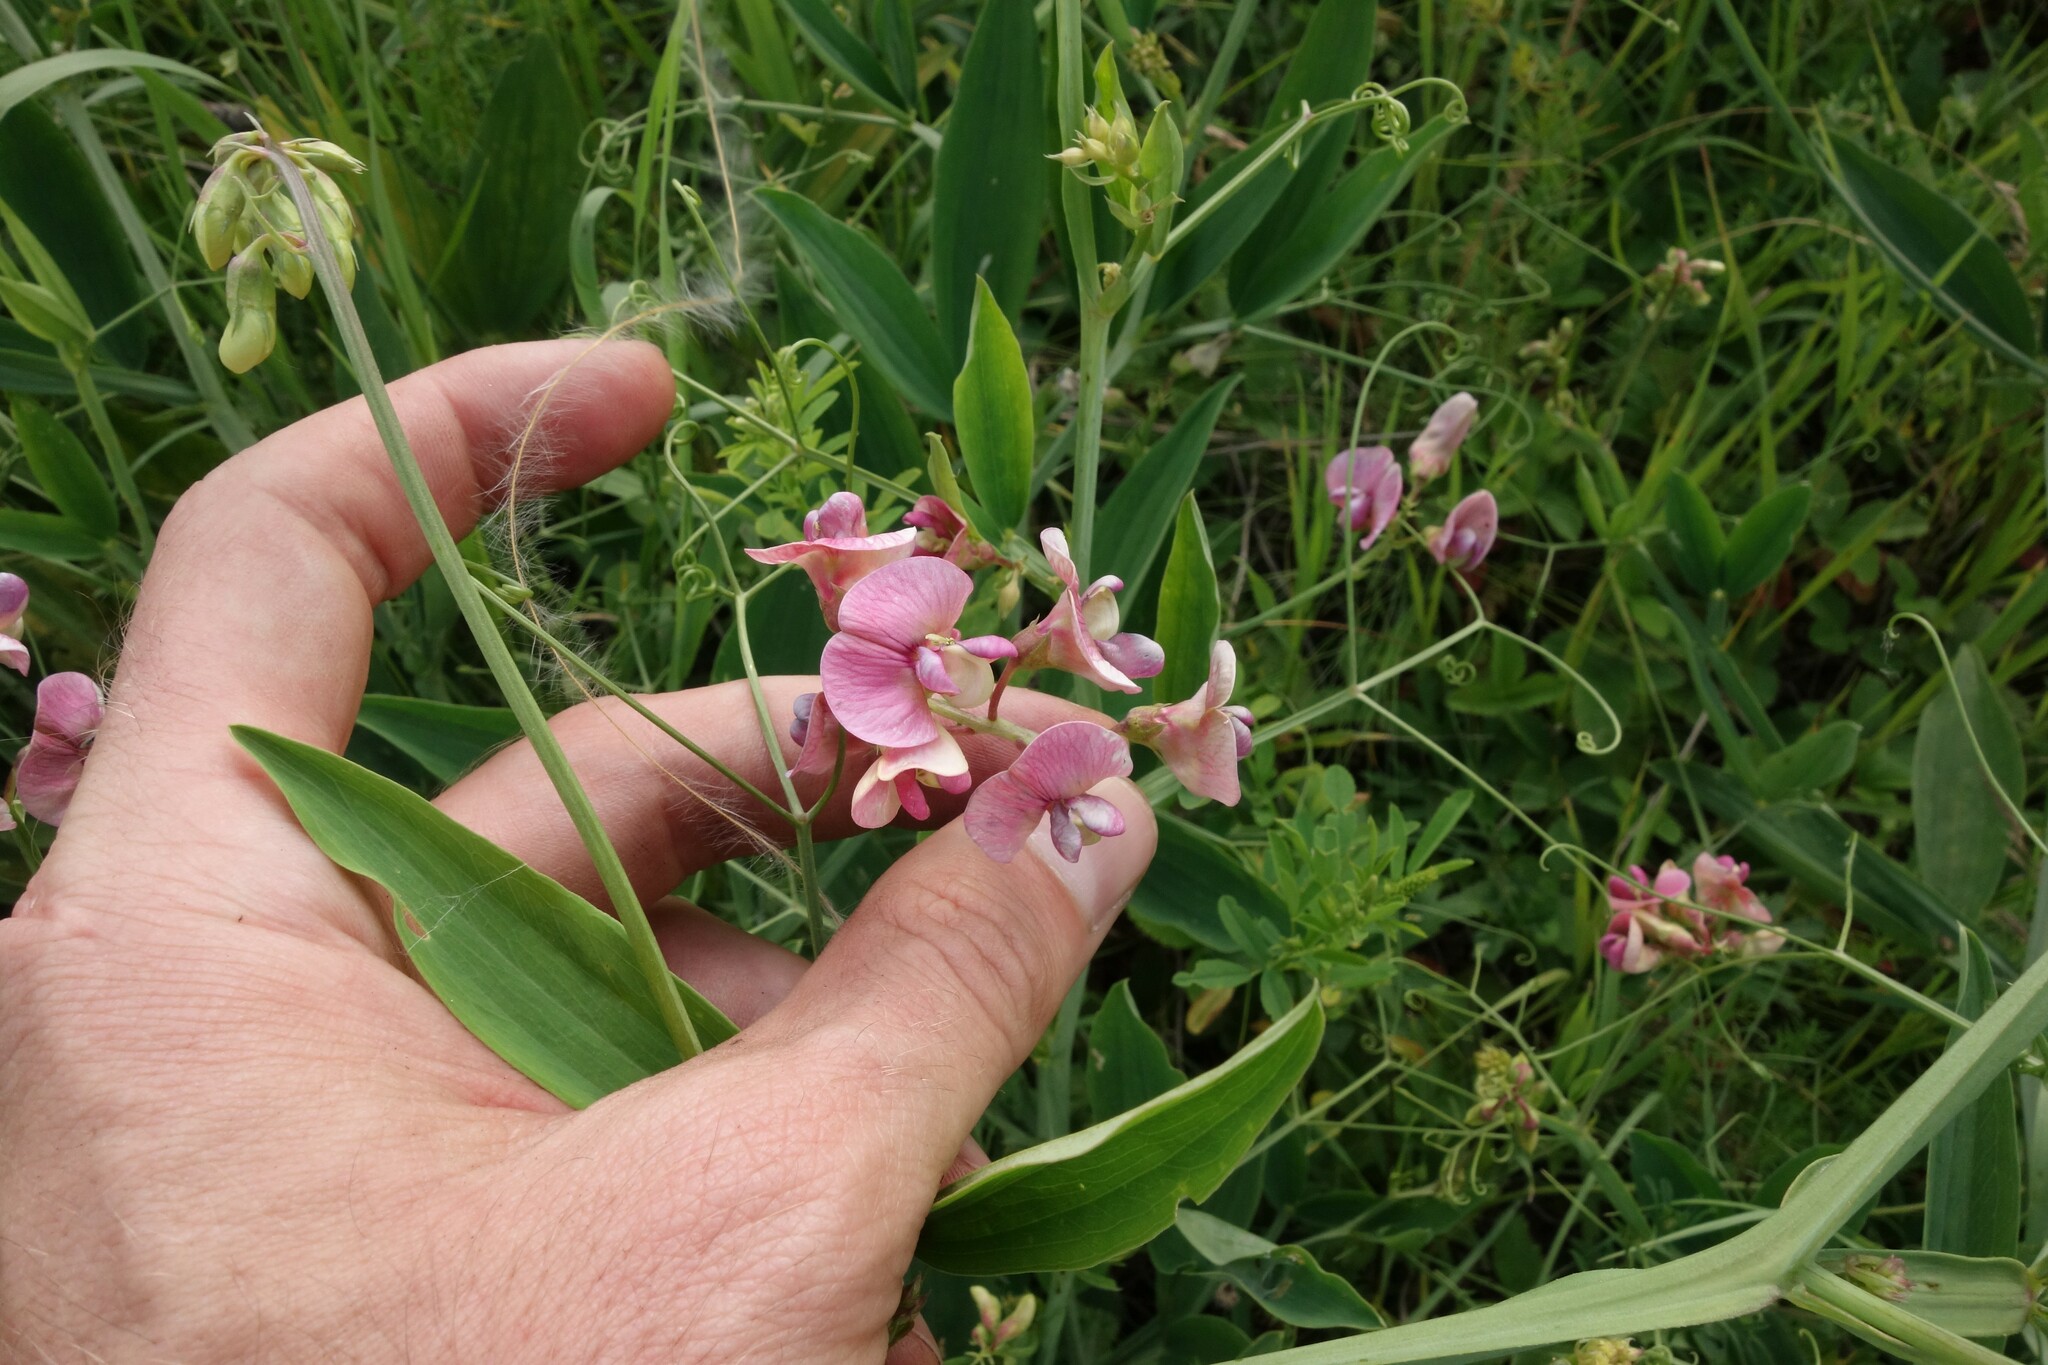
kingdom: Plantae
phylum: Tracheophyta
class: Magnoliopsida
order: Fabales
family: Fabaceae
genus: Lathyrus
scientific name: Lathyrus sylvestris
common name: Flat pea
